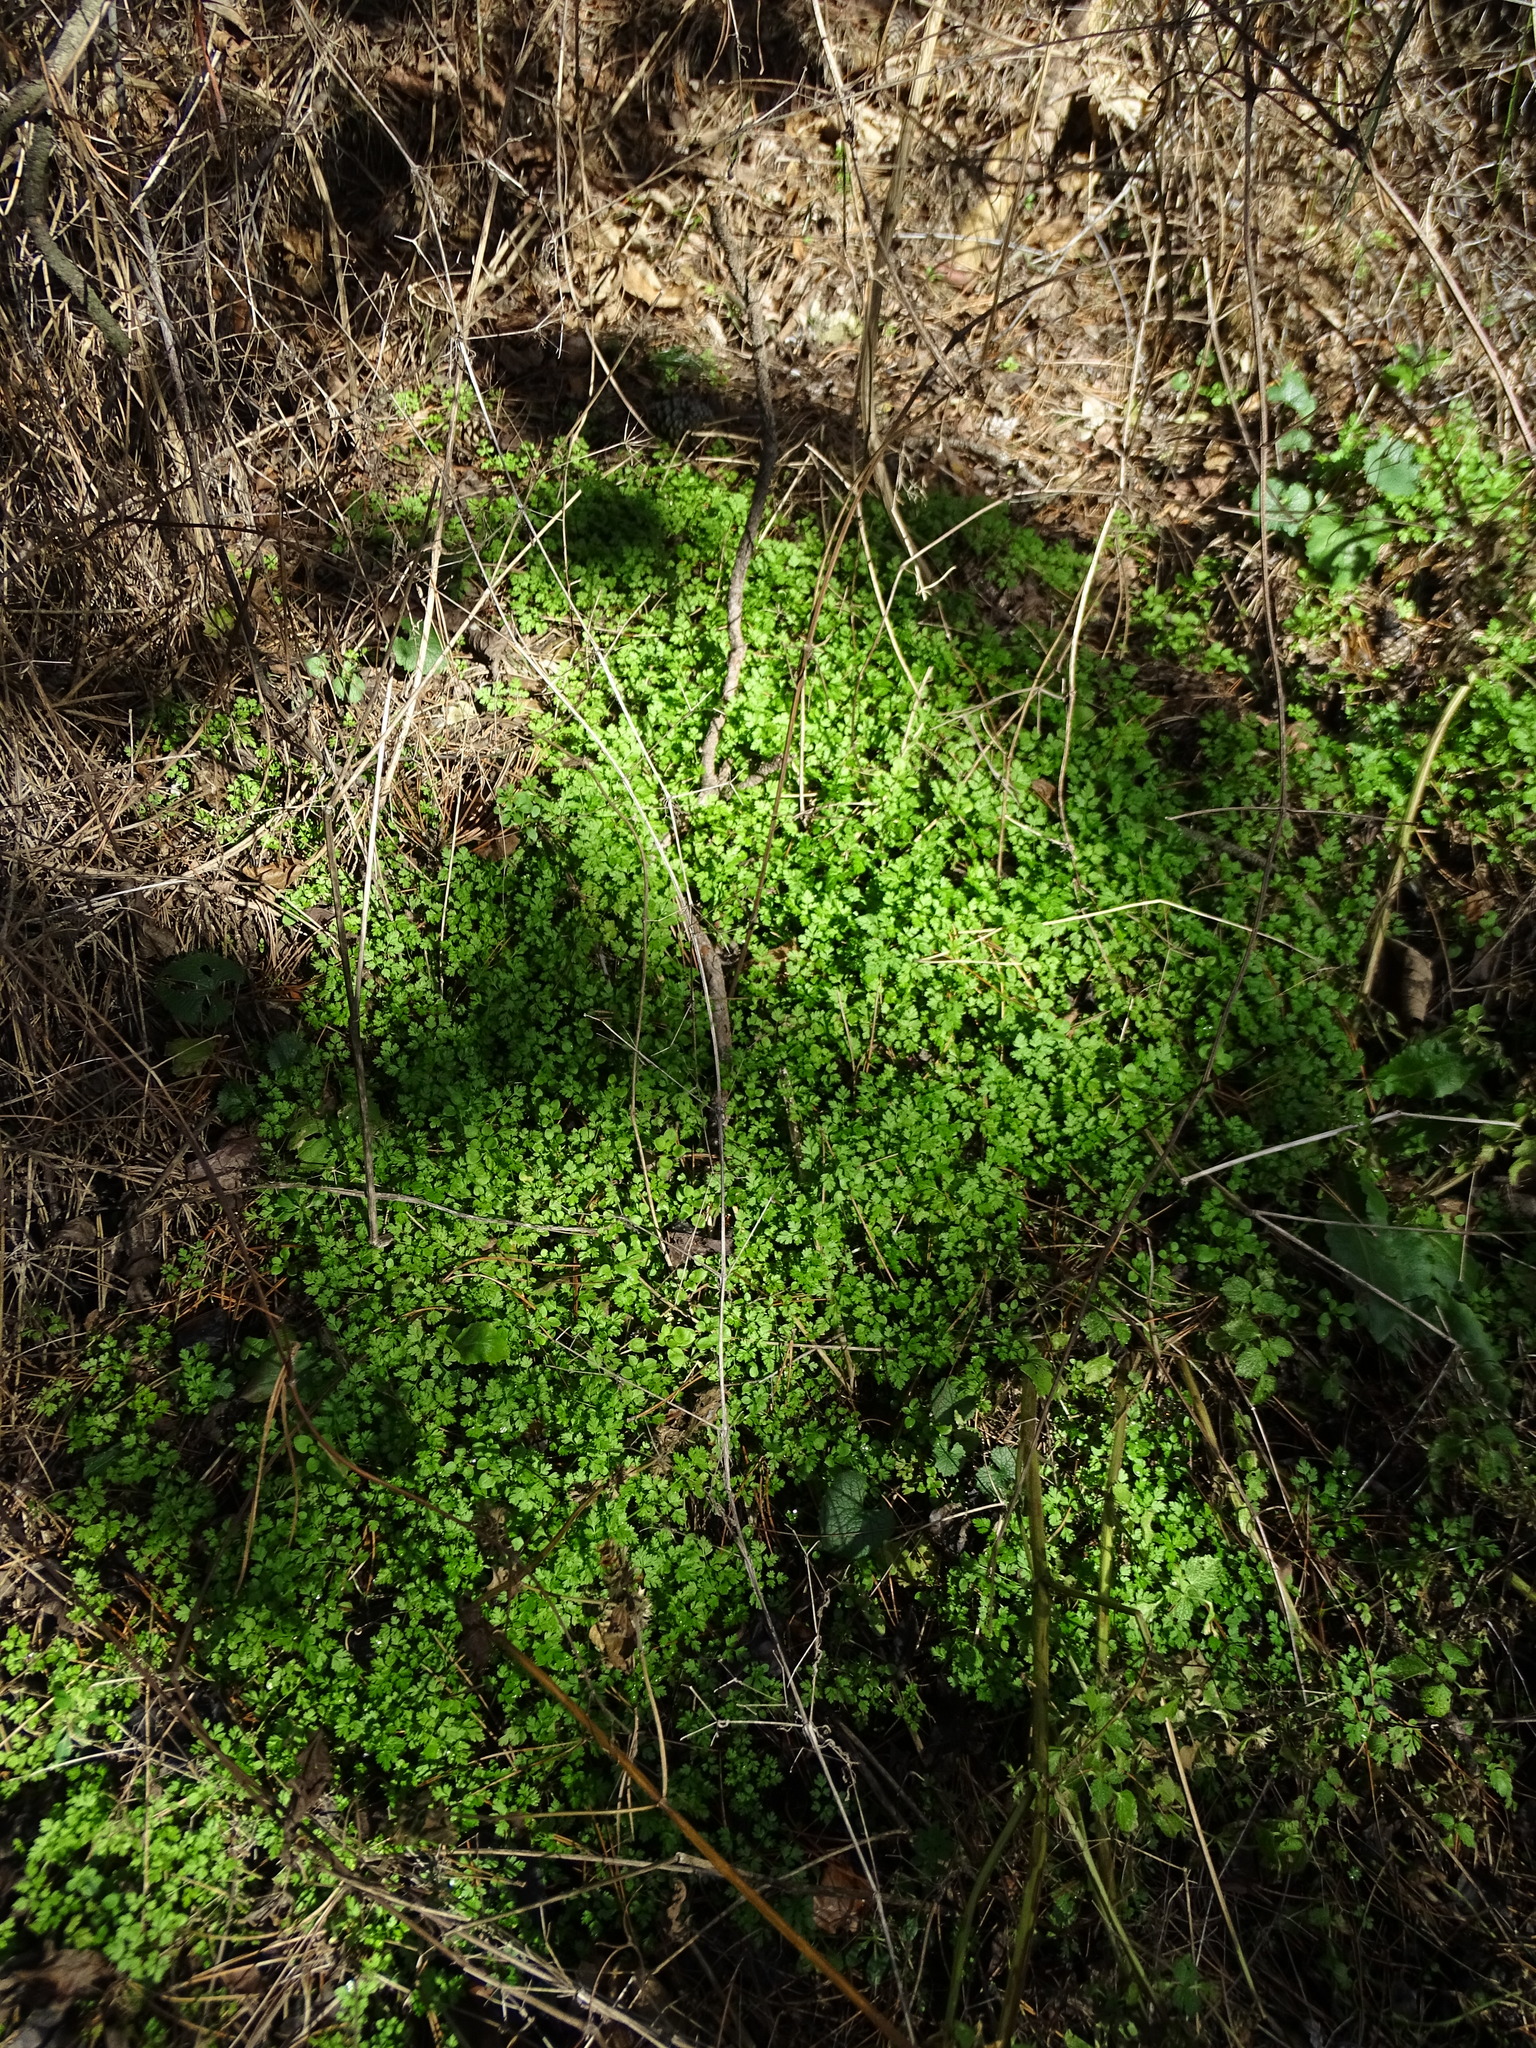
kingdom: Plantae
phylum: Tracheophyta
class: Magnoliopsida
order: Apiales
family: Apiaceae
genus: Anthriscus
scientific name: Anthriscus cerefolium
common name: Garden chervil
